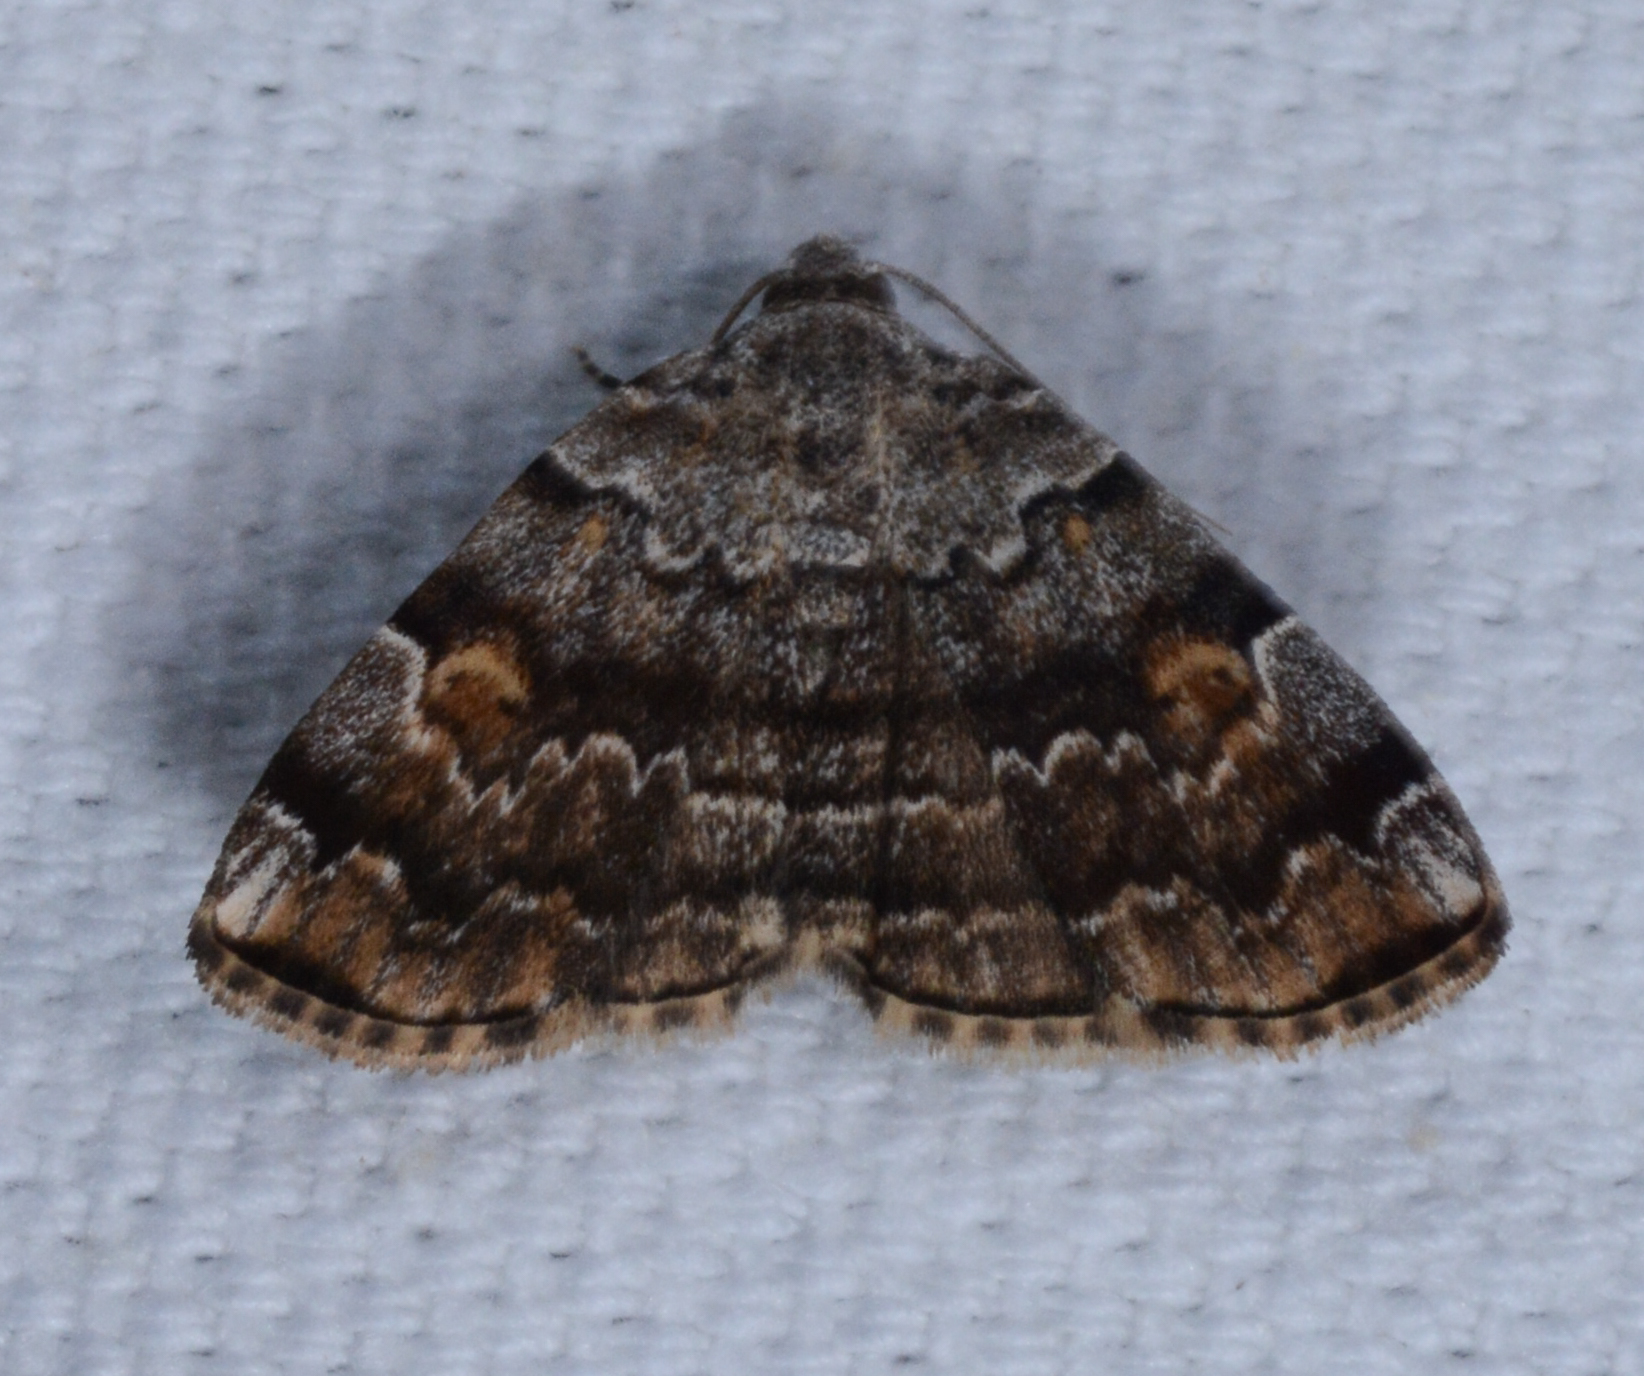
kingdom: Animalia
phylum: Arthropoda
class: Insecta
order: Lepidoptera
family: Erebidae
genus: Idia
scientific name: Idia americalis
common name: American idia moth
